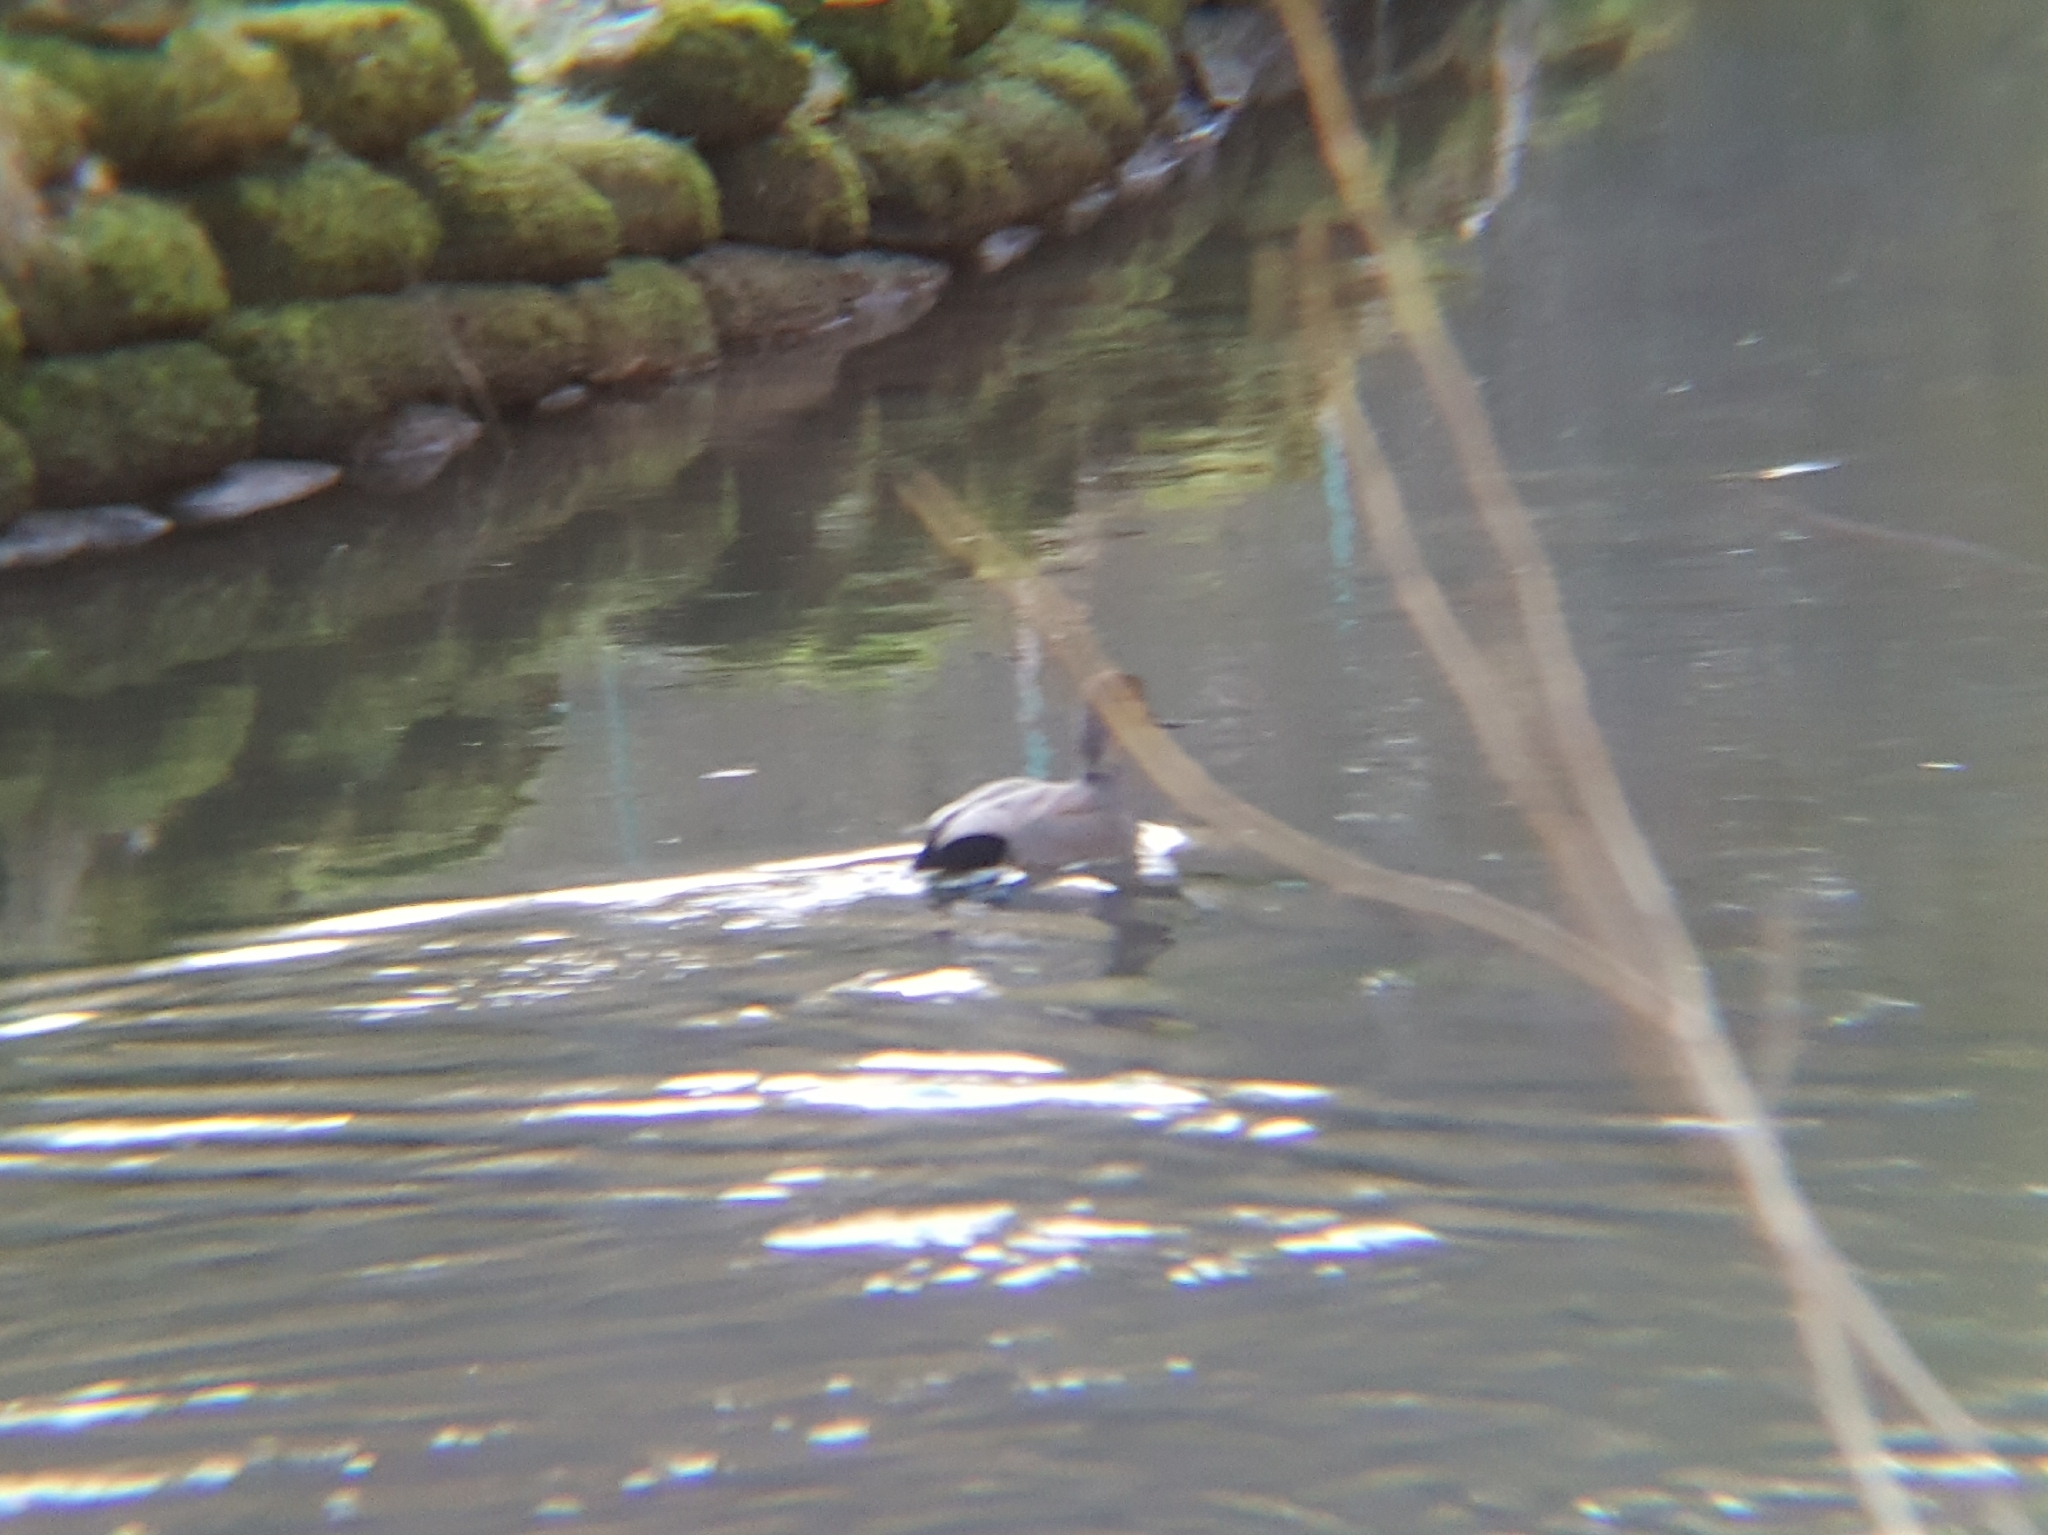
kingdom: Animalia
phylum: Chordata
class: Aves
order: Anseriformes
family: Anatidae
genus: Mareca
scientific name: Mareca strepera
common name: Gadwall
